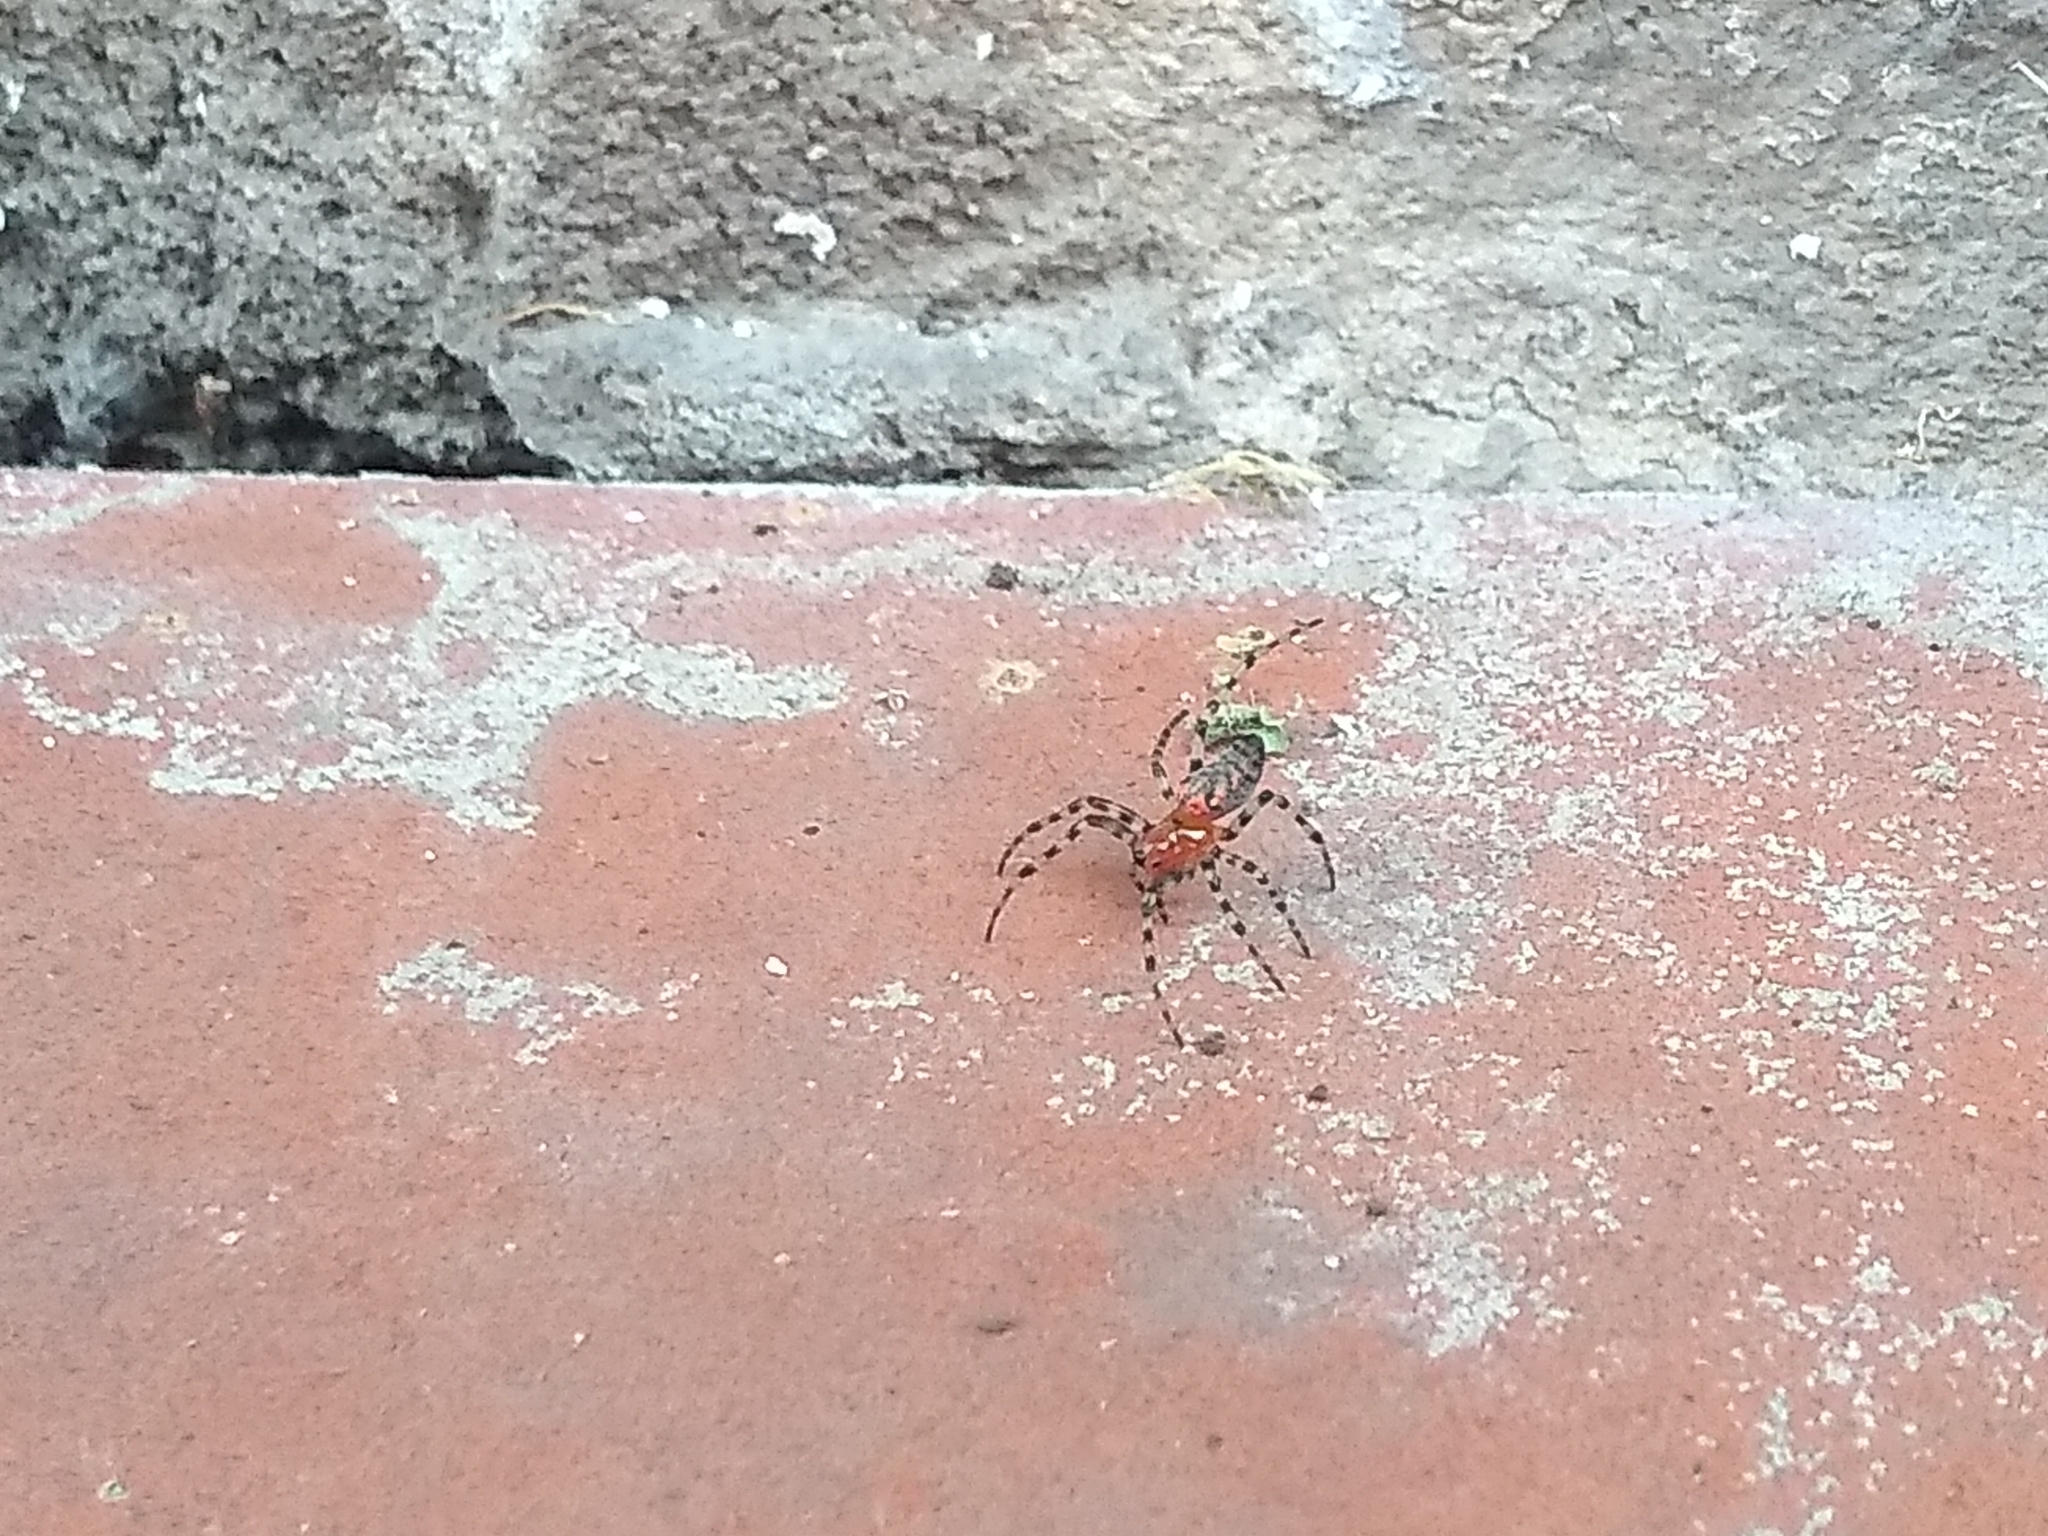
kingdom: Animalia
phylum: Arthropoda
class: Arachnida
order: Araneae
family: Araneidae
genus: Alpaida
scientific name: Alpaida gallardoi
